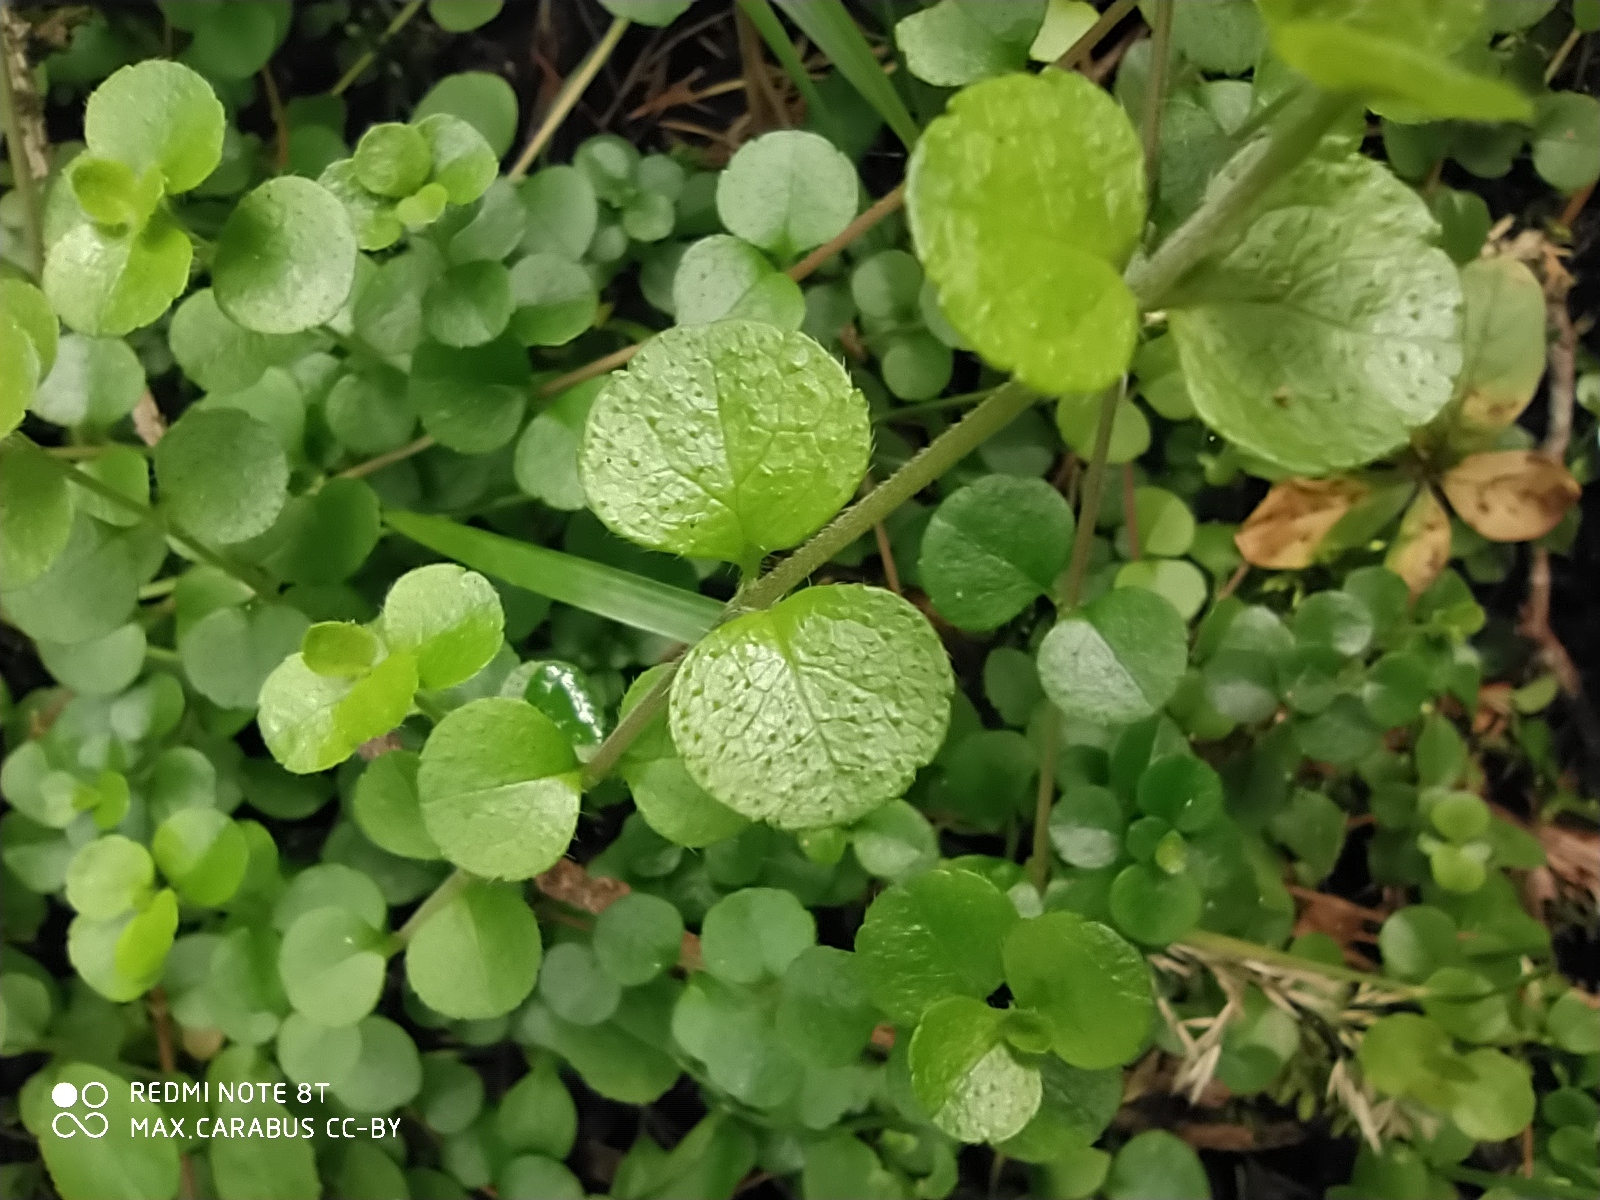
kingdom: Plantae
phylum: Tracheophyta
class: Magnoliopsida
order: Dipsacales
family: Caprifoliaceae
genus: Linnaea
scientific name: Linnaea borealis
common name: Twinflower
